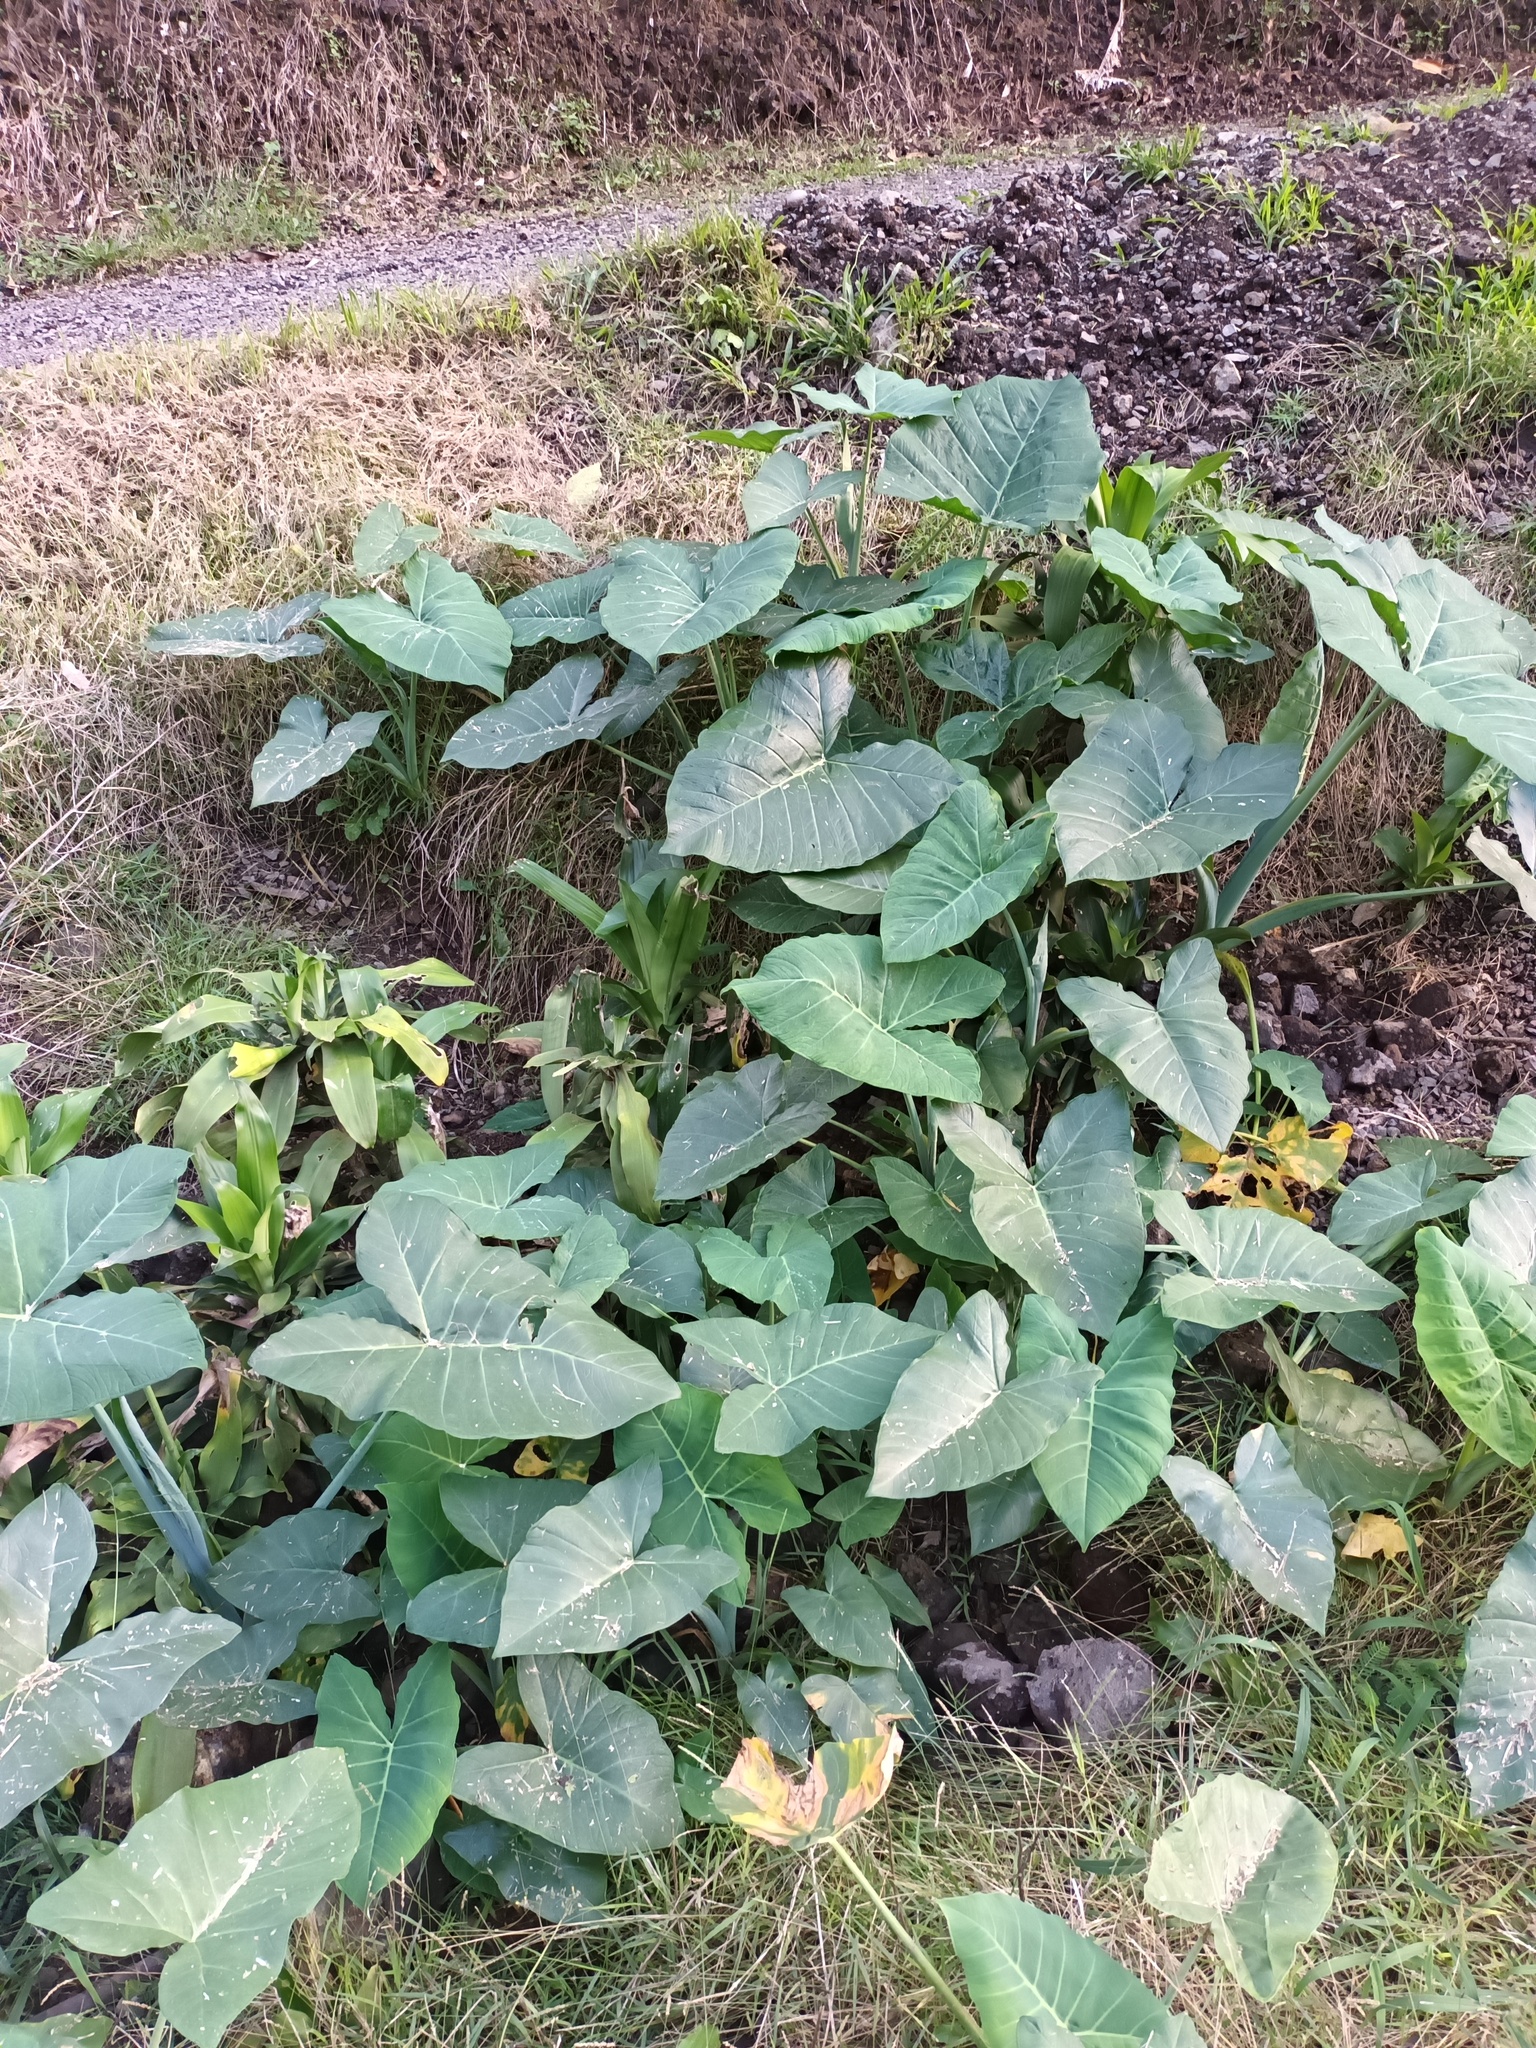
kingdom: Plantae
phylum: Tracheophyta
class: Liliopsida
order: Alismatales
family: Araceae
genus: Xanthosoma
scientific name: Xanthosoma robustum
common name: Capote
